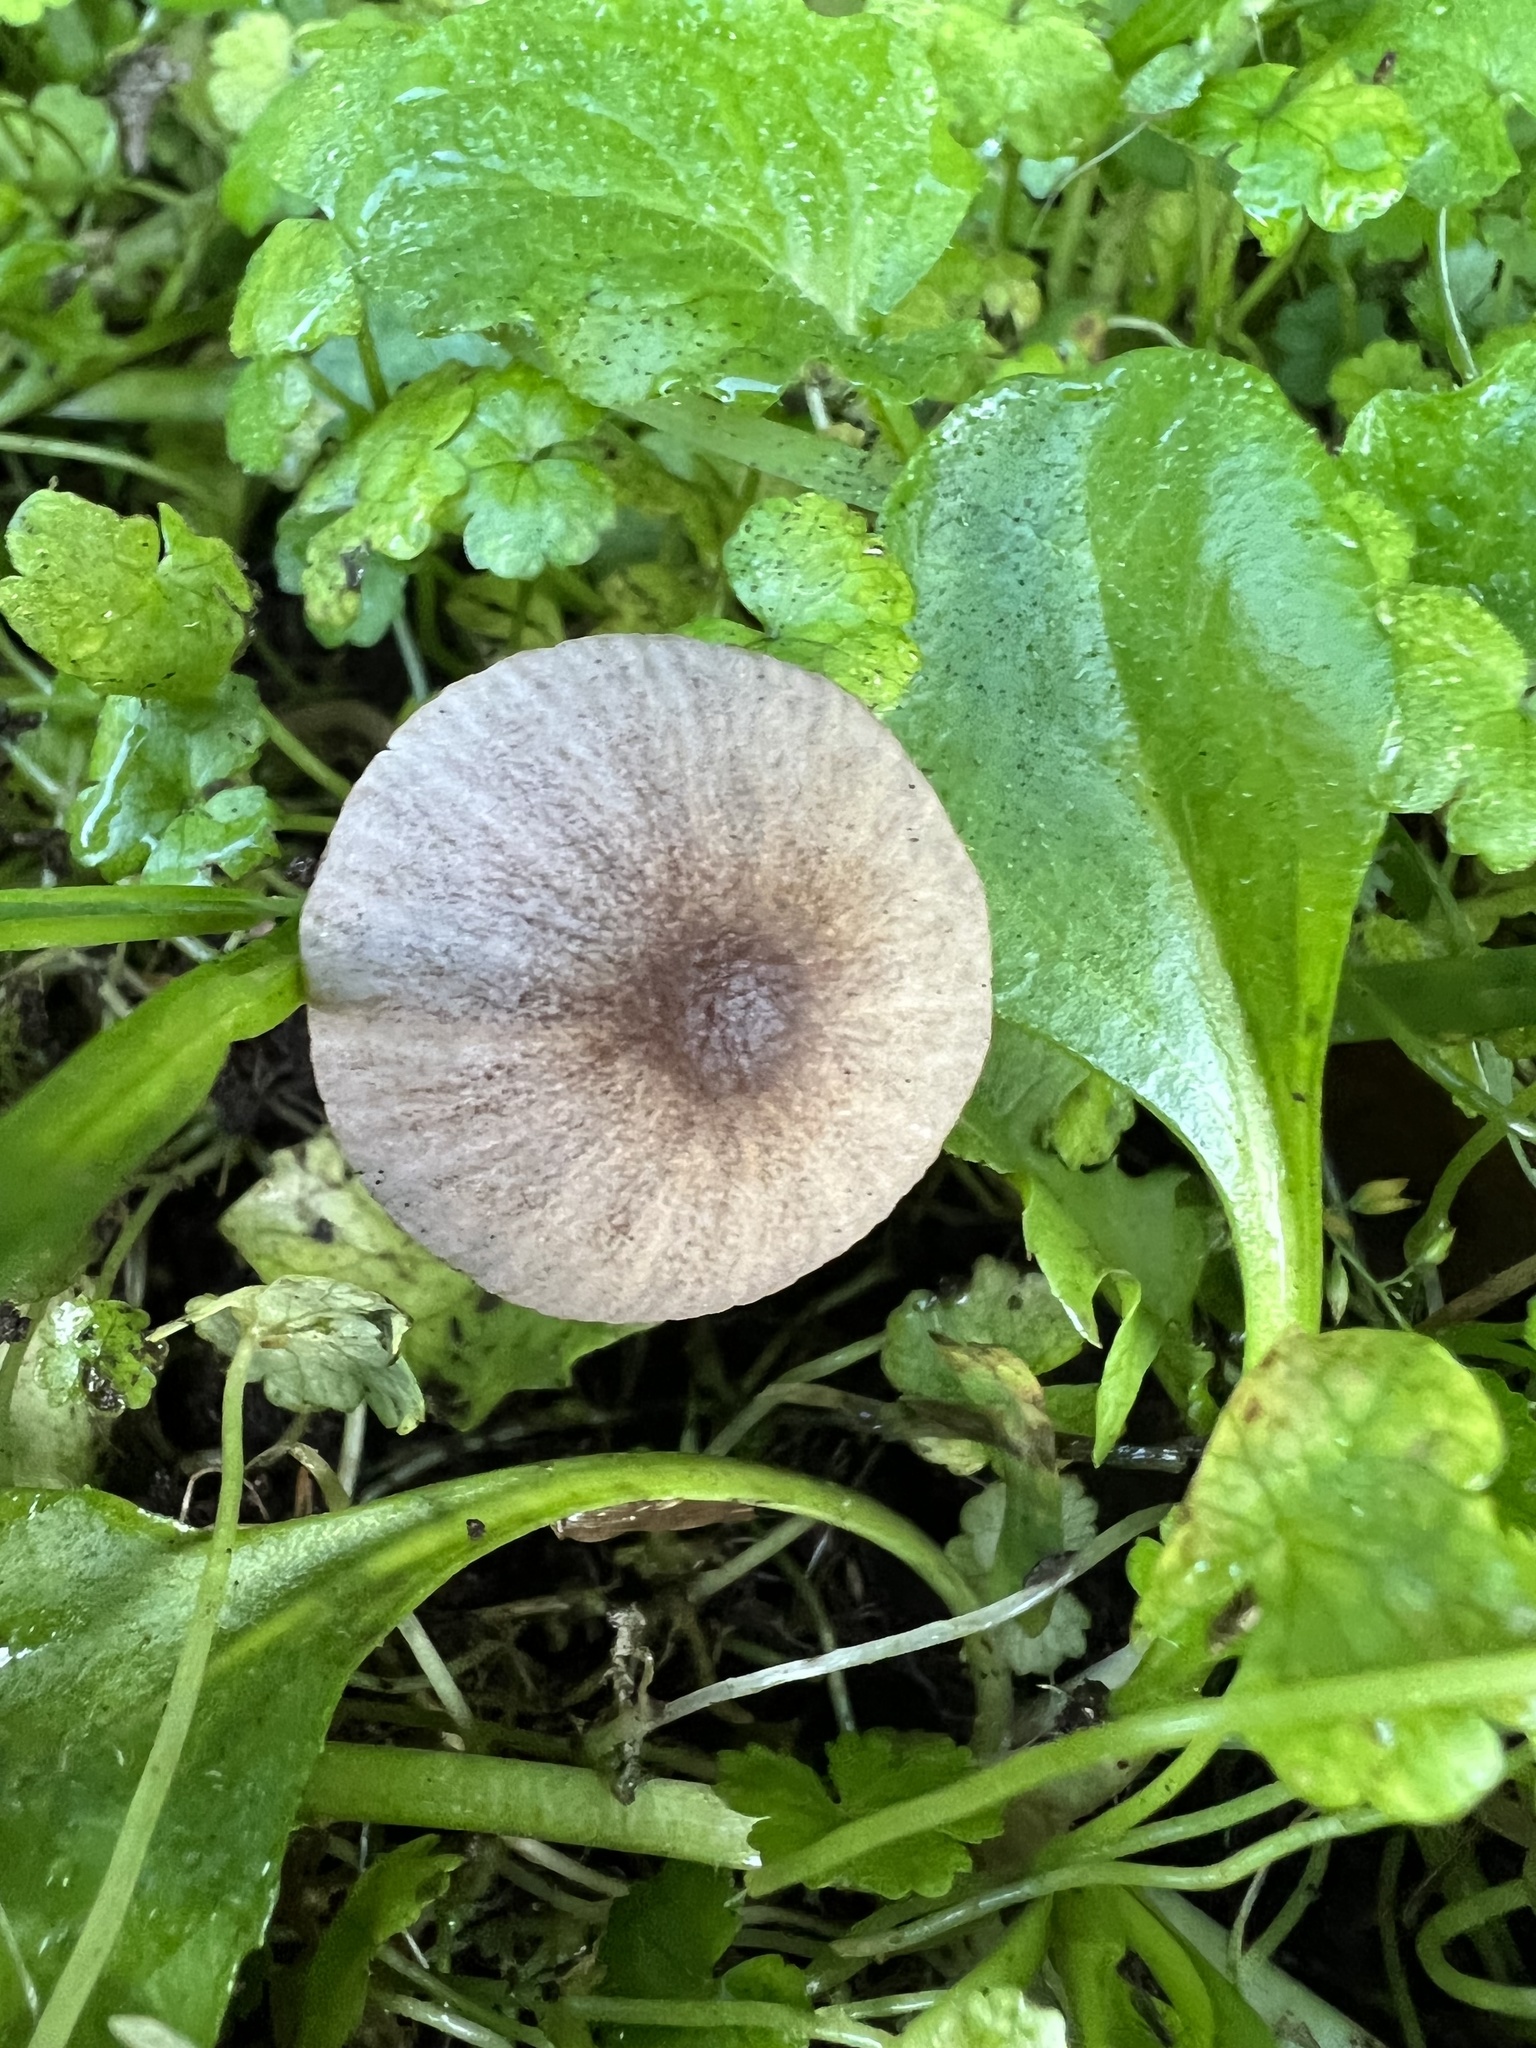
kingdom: Fungi
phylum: Basidiomycota
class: Agaricomycetes
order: Agaricales
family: Psathyrellaceae
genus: Psathyrella
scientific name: Psathyrella sublatispora
